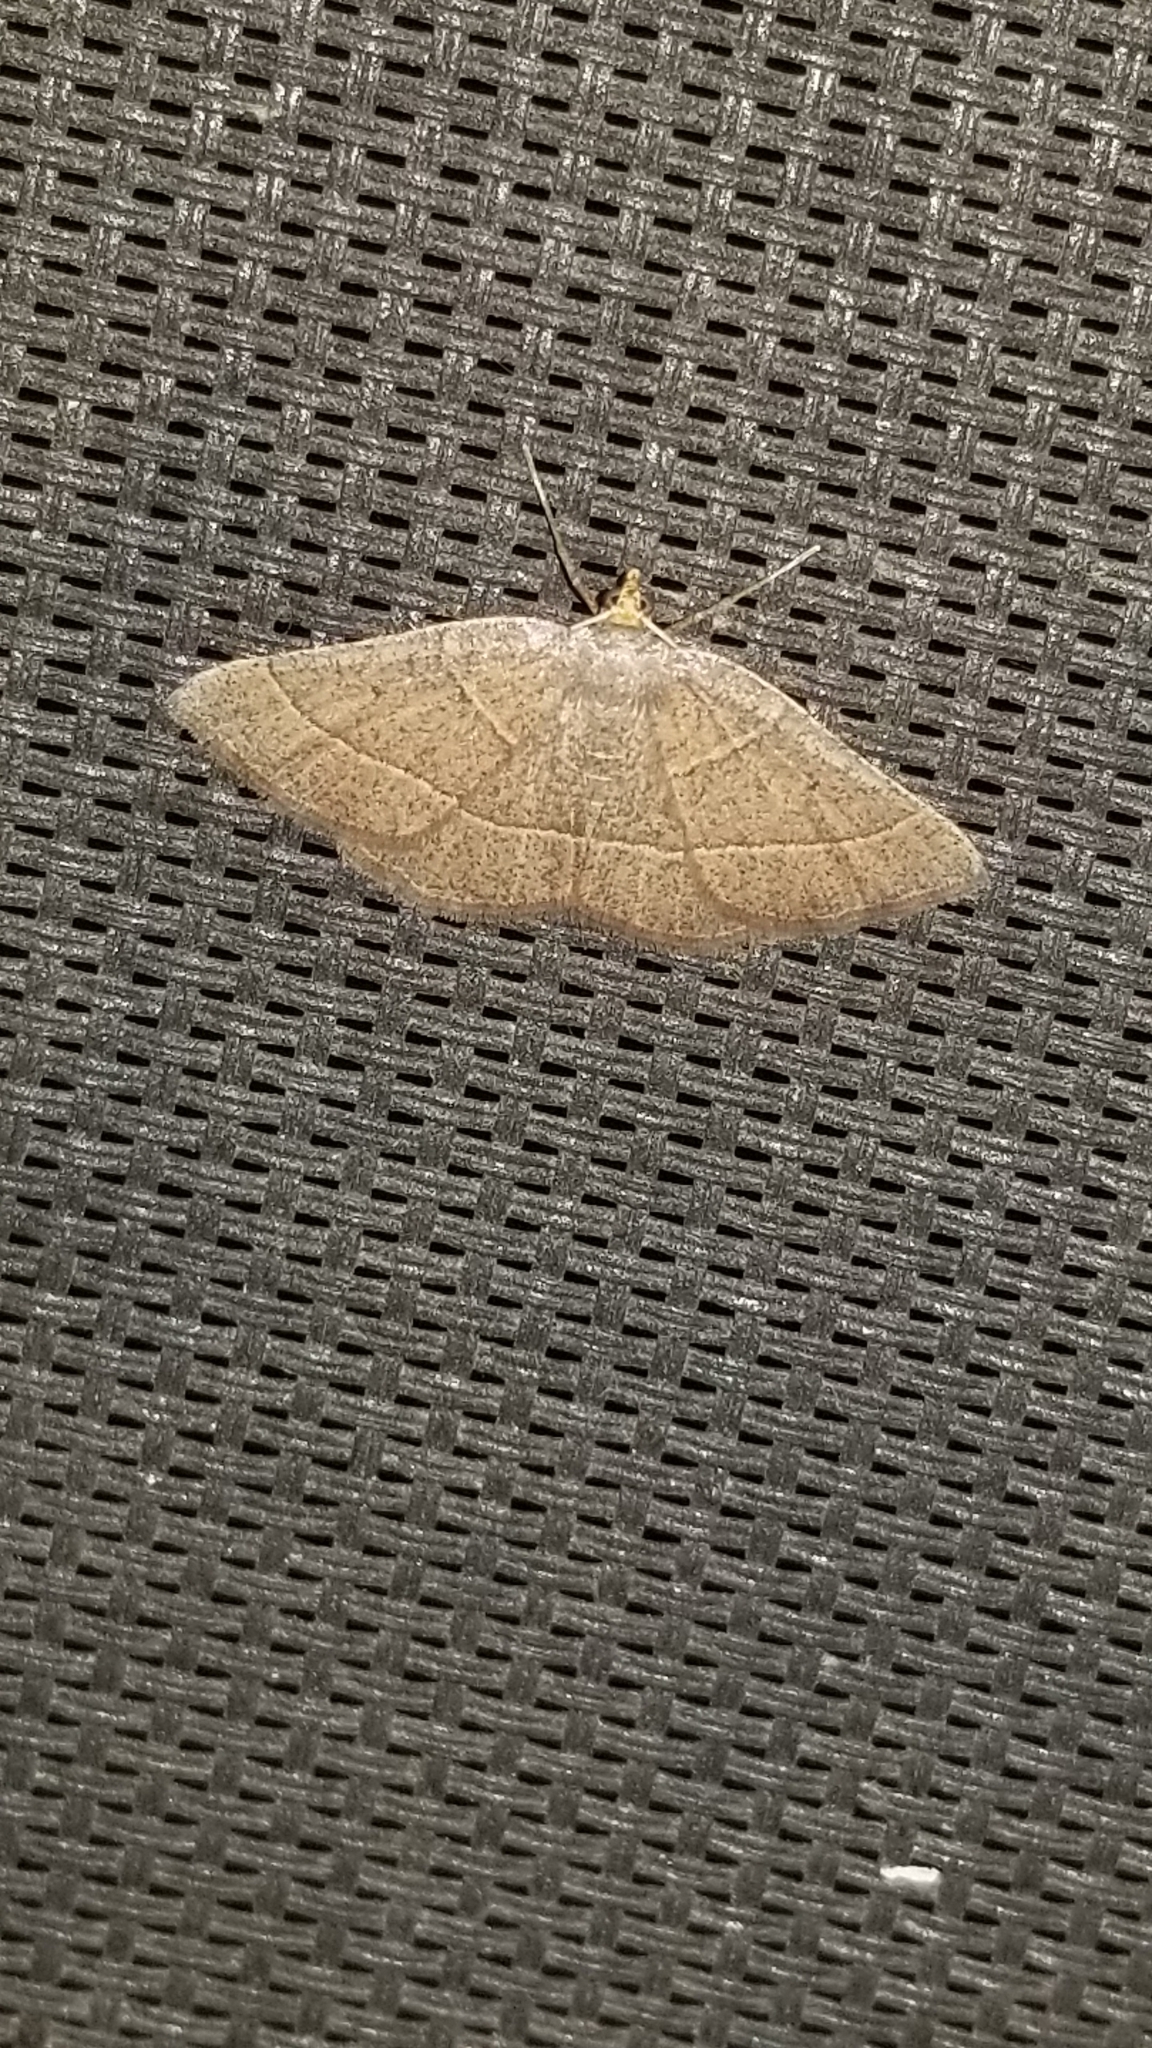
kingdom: Animalia
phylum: Arthropoda
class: Insecta
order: Lepidoptera
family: Geometridae
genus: Episemasia
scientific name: Episemasia cervinaria
